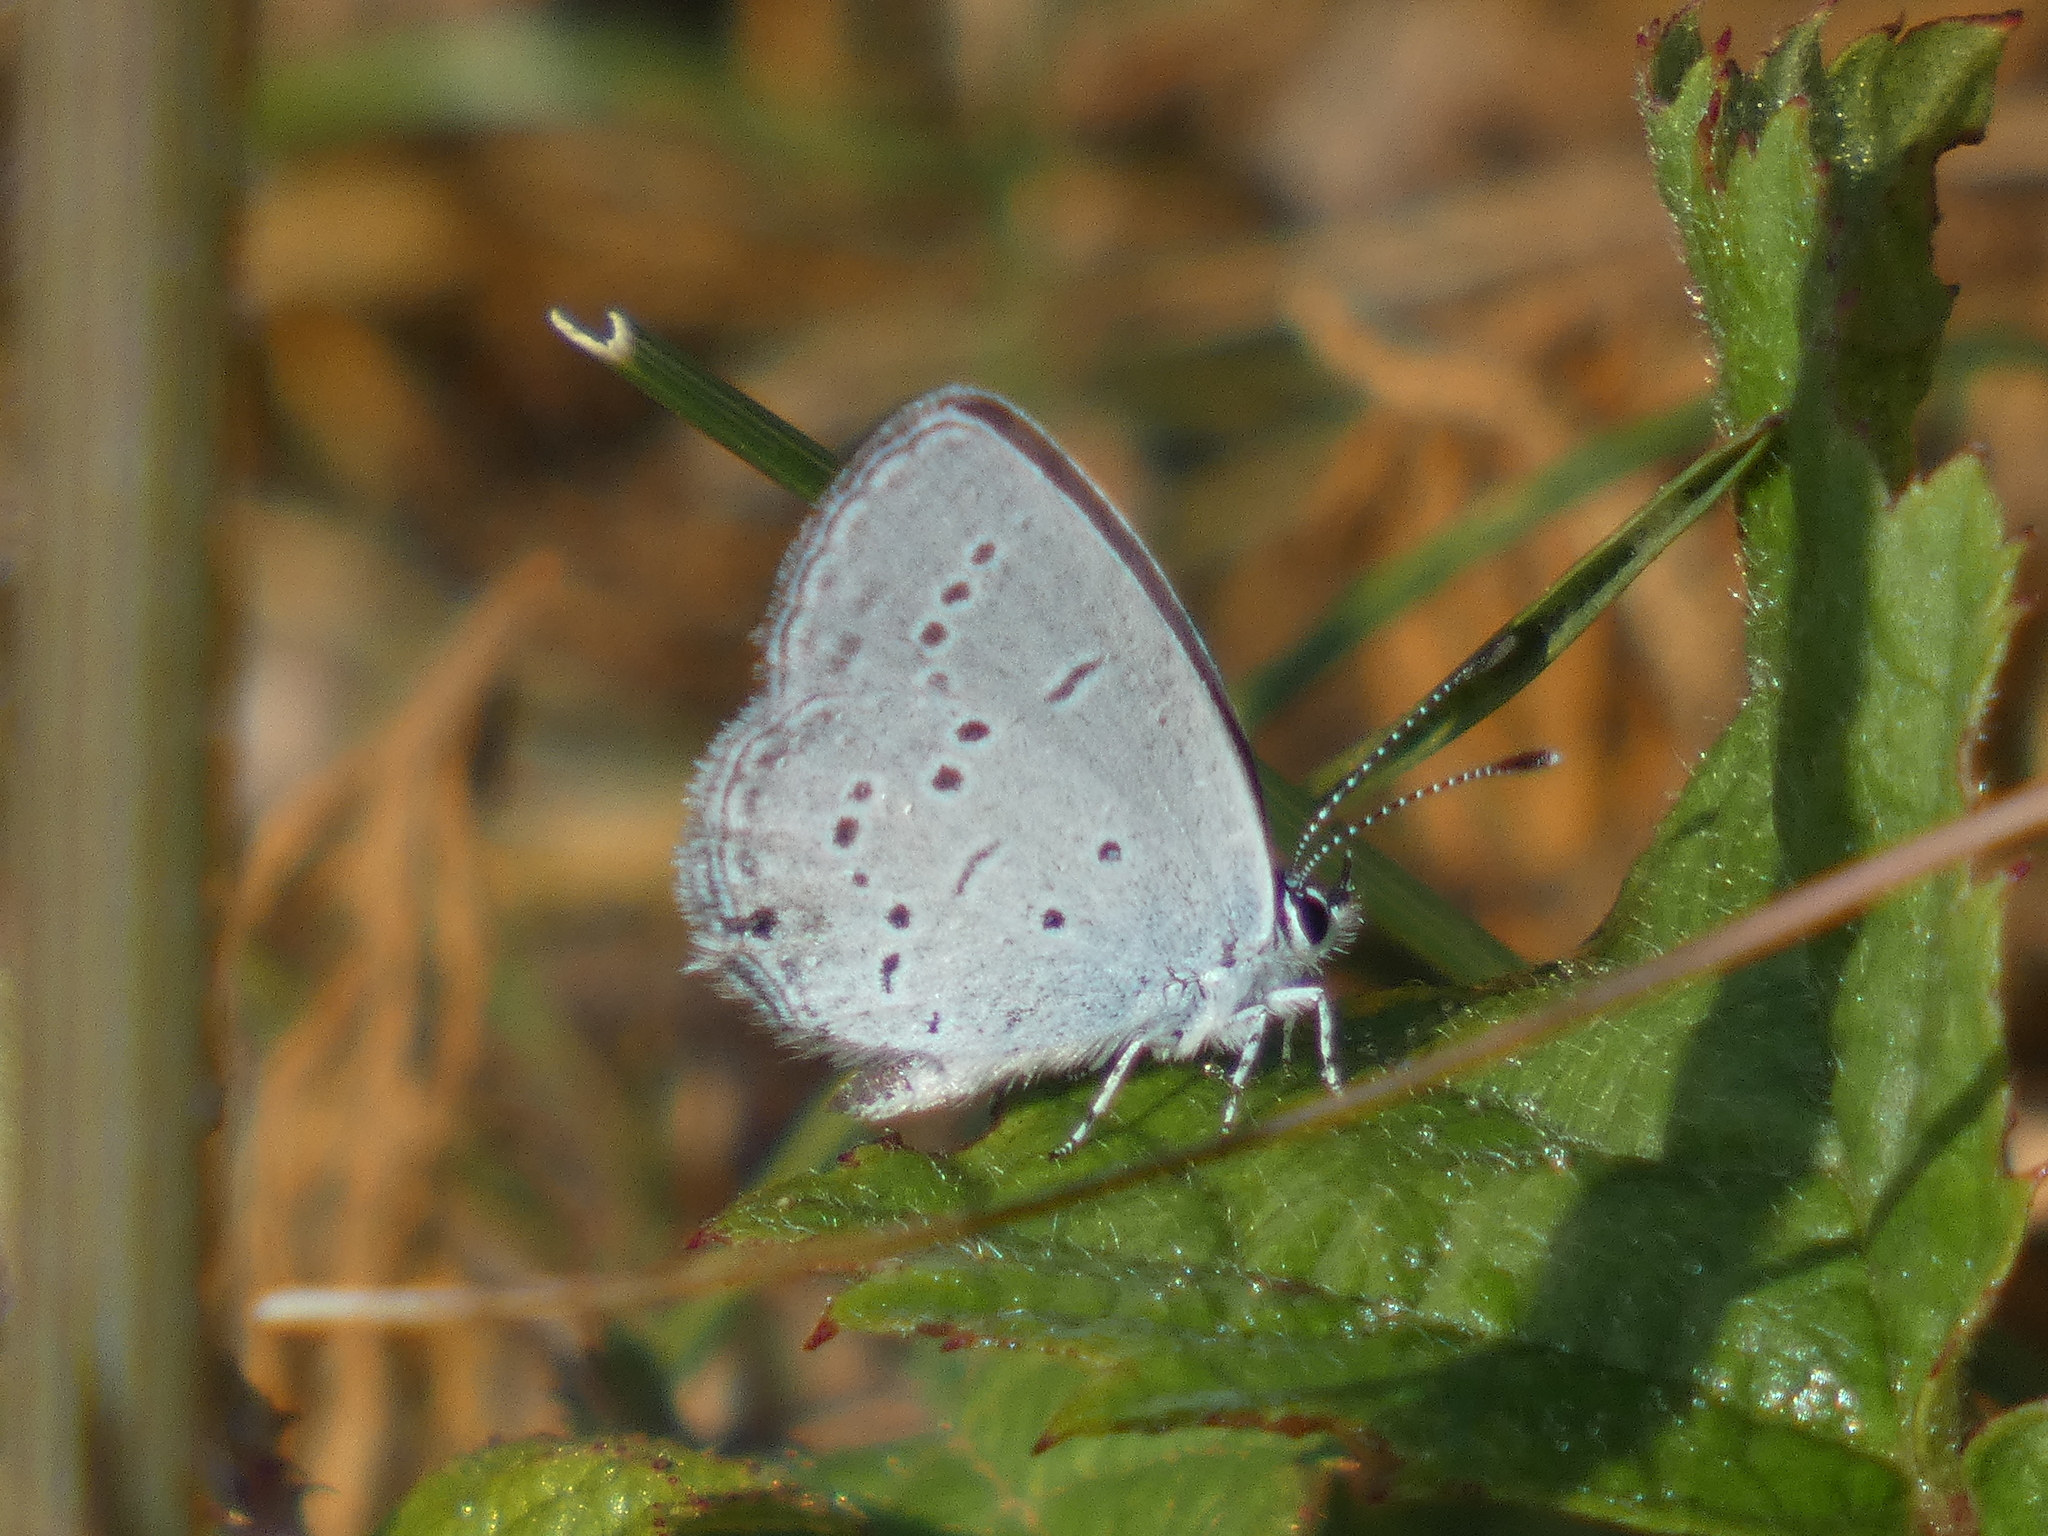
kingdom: Animalia
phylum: Arthropoda
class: Insecta
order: Lepidoptera
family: Lycaenidae
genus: Elkalyce
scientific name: Elkalyce alcetas
